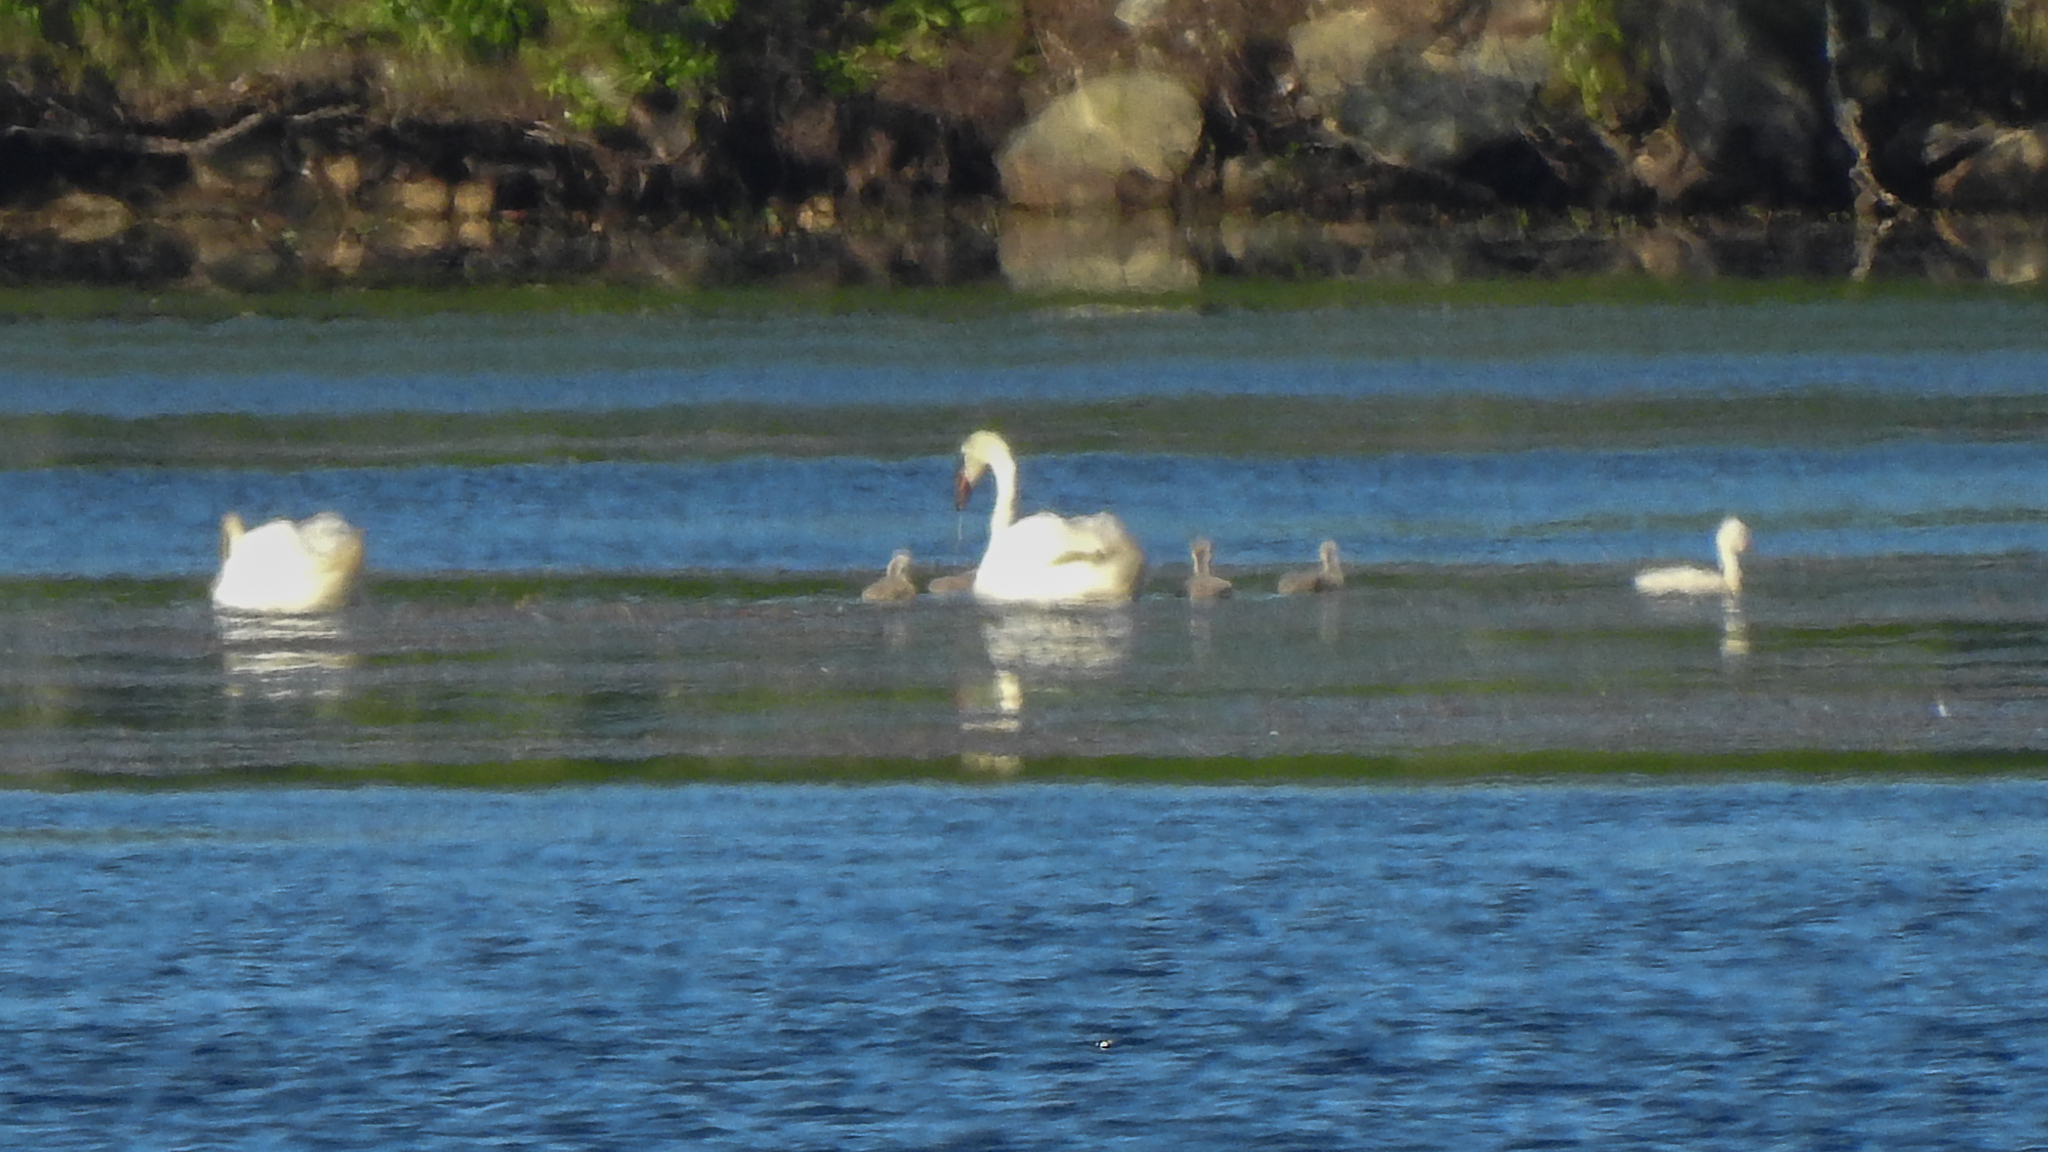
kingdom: Animalia
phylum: Chordata
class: Aves
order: Anseriformes
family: Anatidae
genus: Cygnus
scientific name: Cygnus olor
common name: Mute swan
